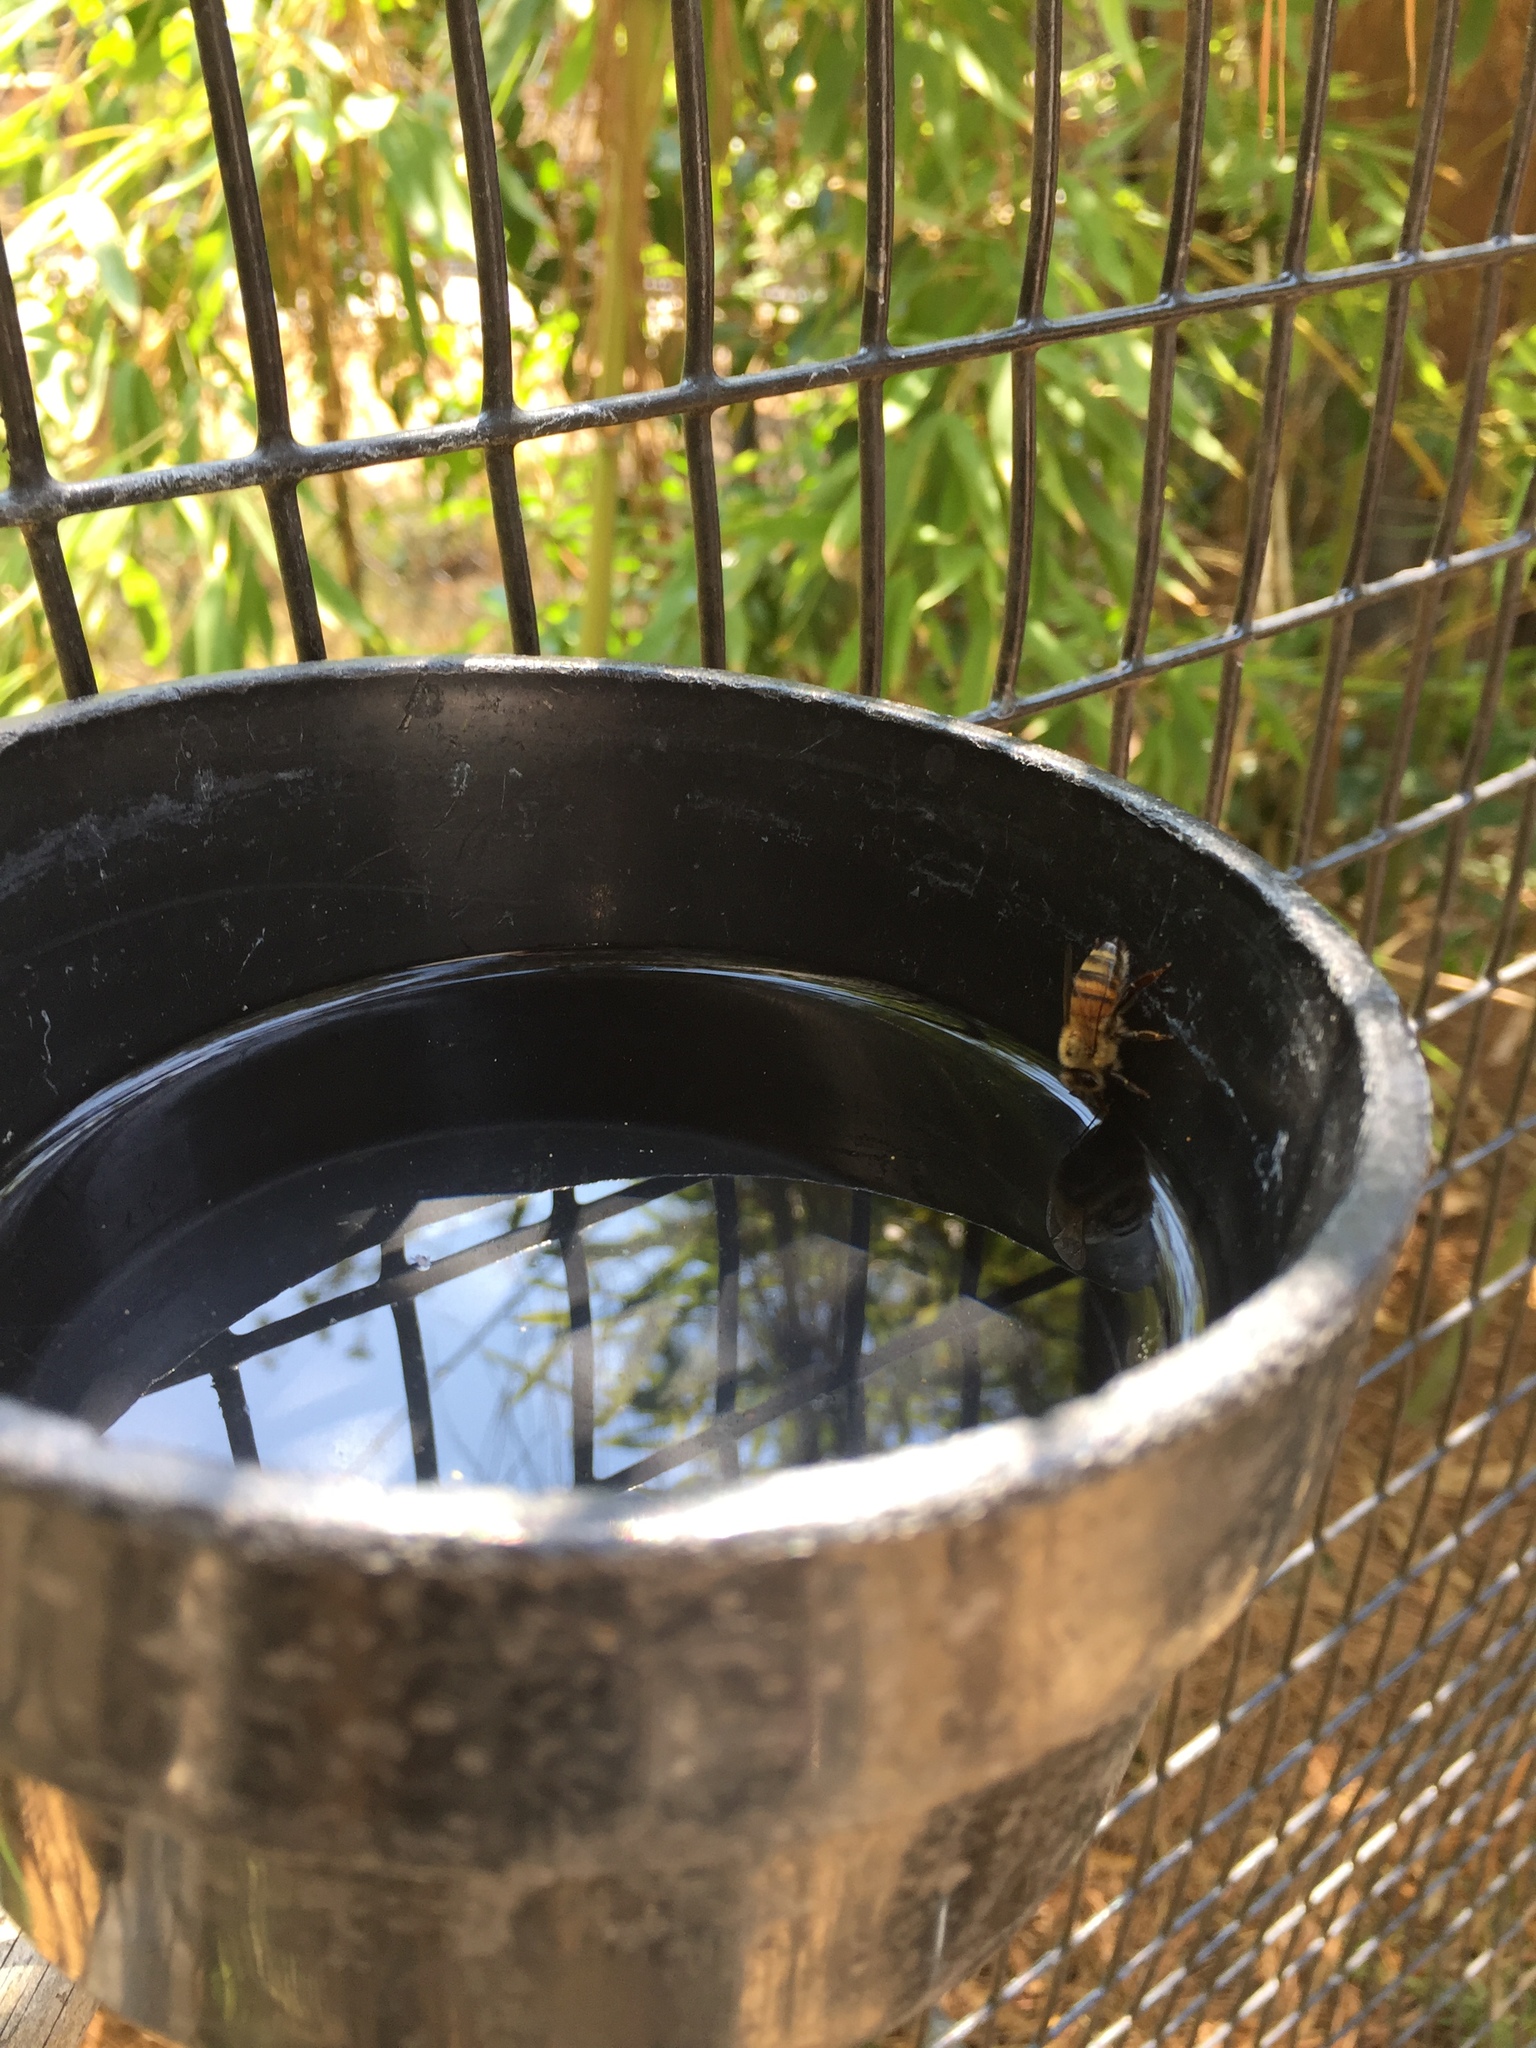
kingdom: Animalia
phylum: Arthropoda
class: Insecta
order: Hymenoptera
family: Apidae
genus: Apis
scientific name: Apis mellifera
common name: Honey bee
